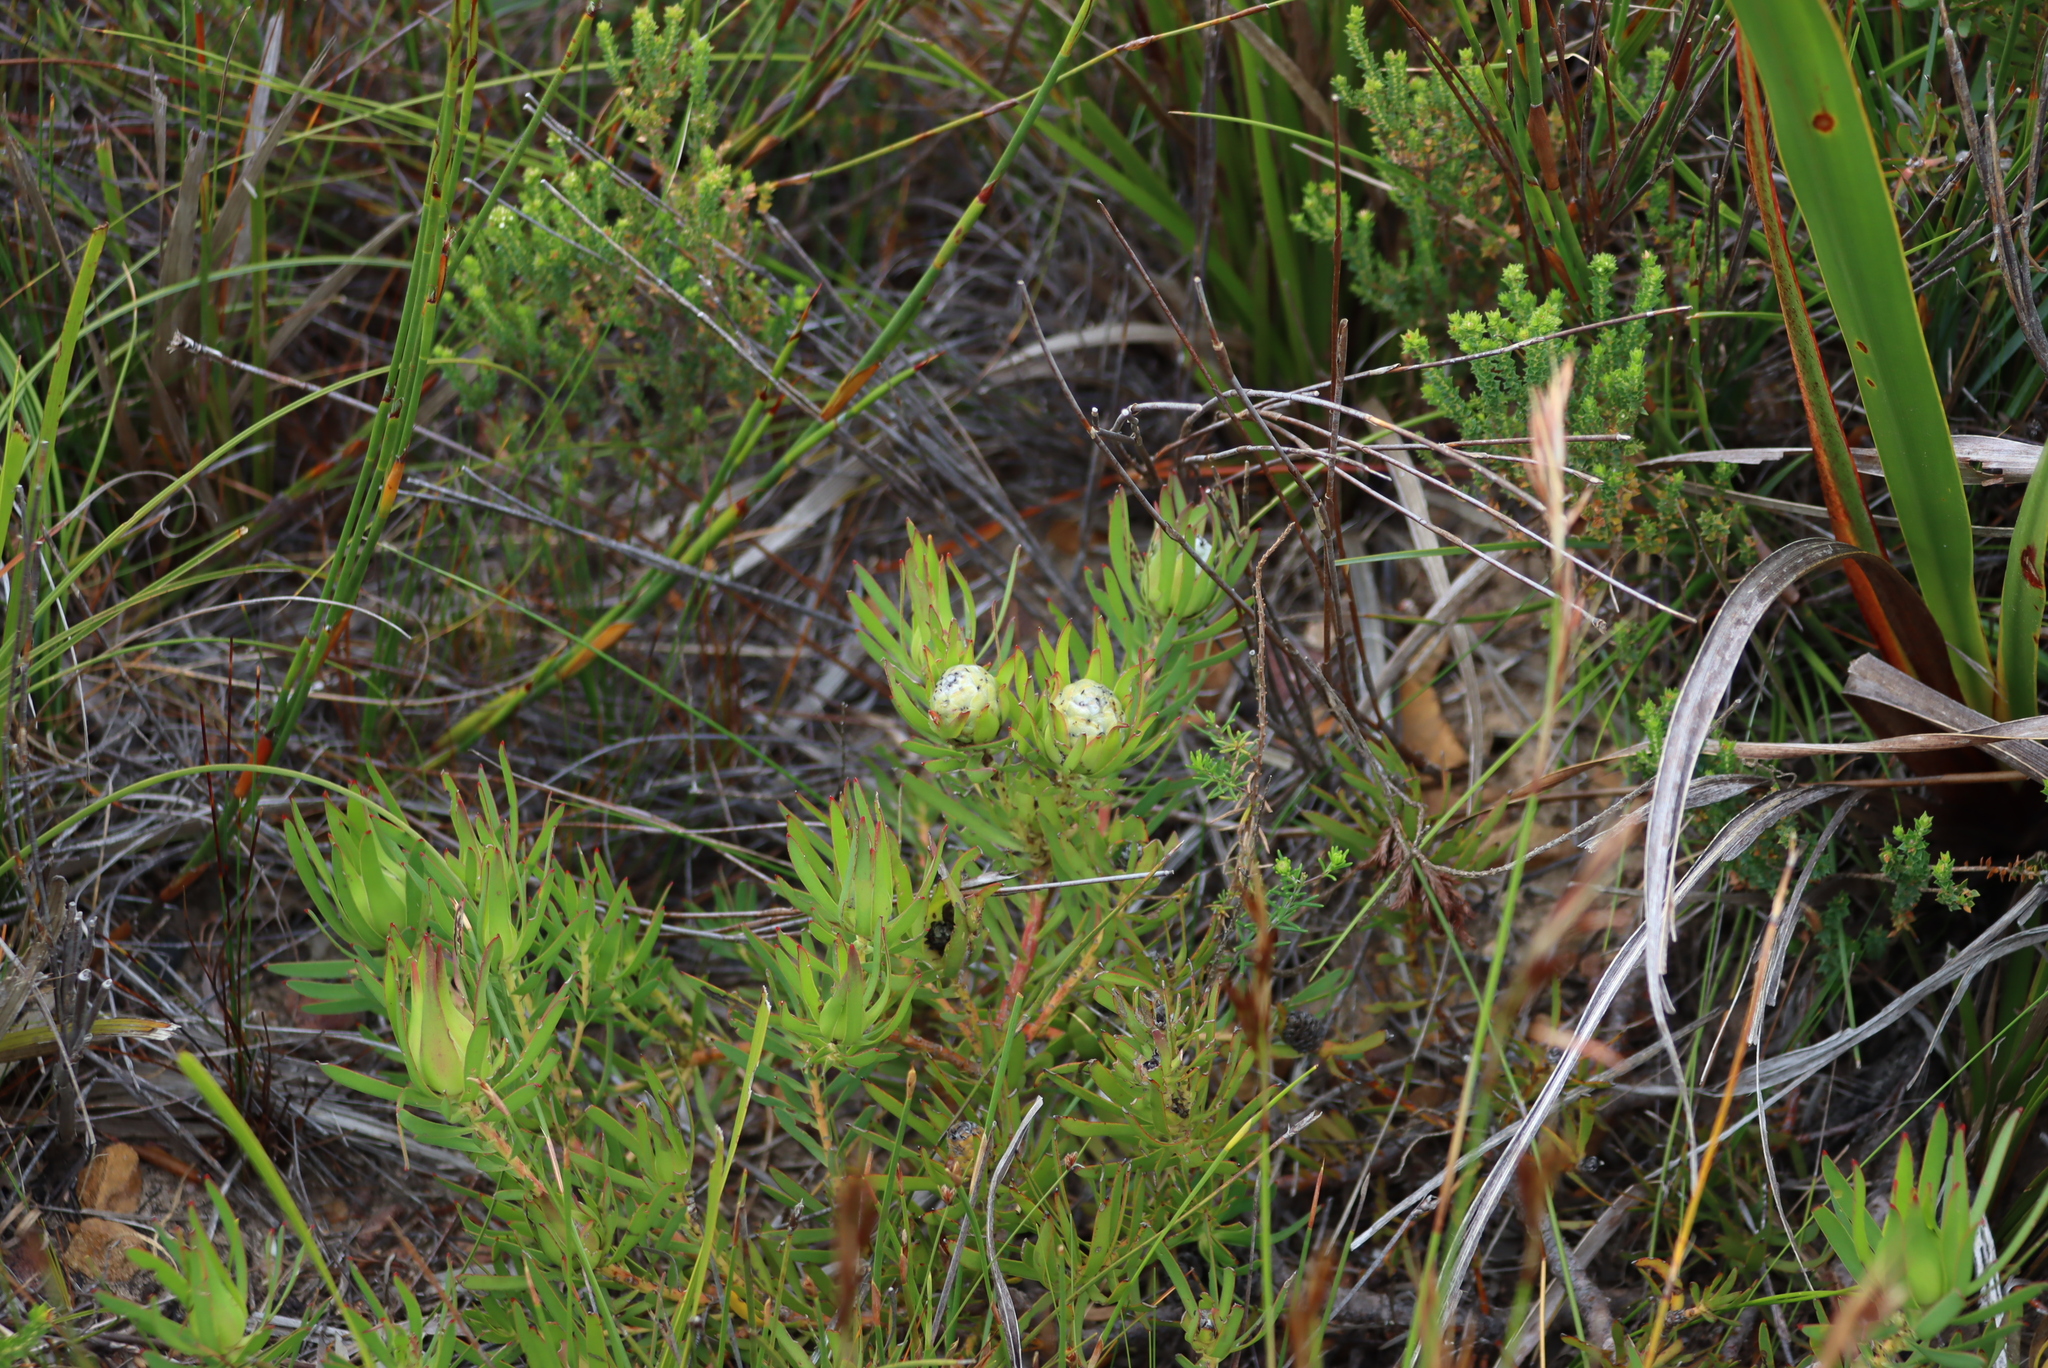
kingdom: Plantae
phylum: Tracheophyta
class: Magnoliopsida
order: Proteales
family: Proteaceae
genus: Leucadendron
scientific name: Leucadendron salignum
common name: Common sunshine conebush
